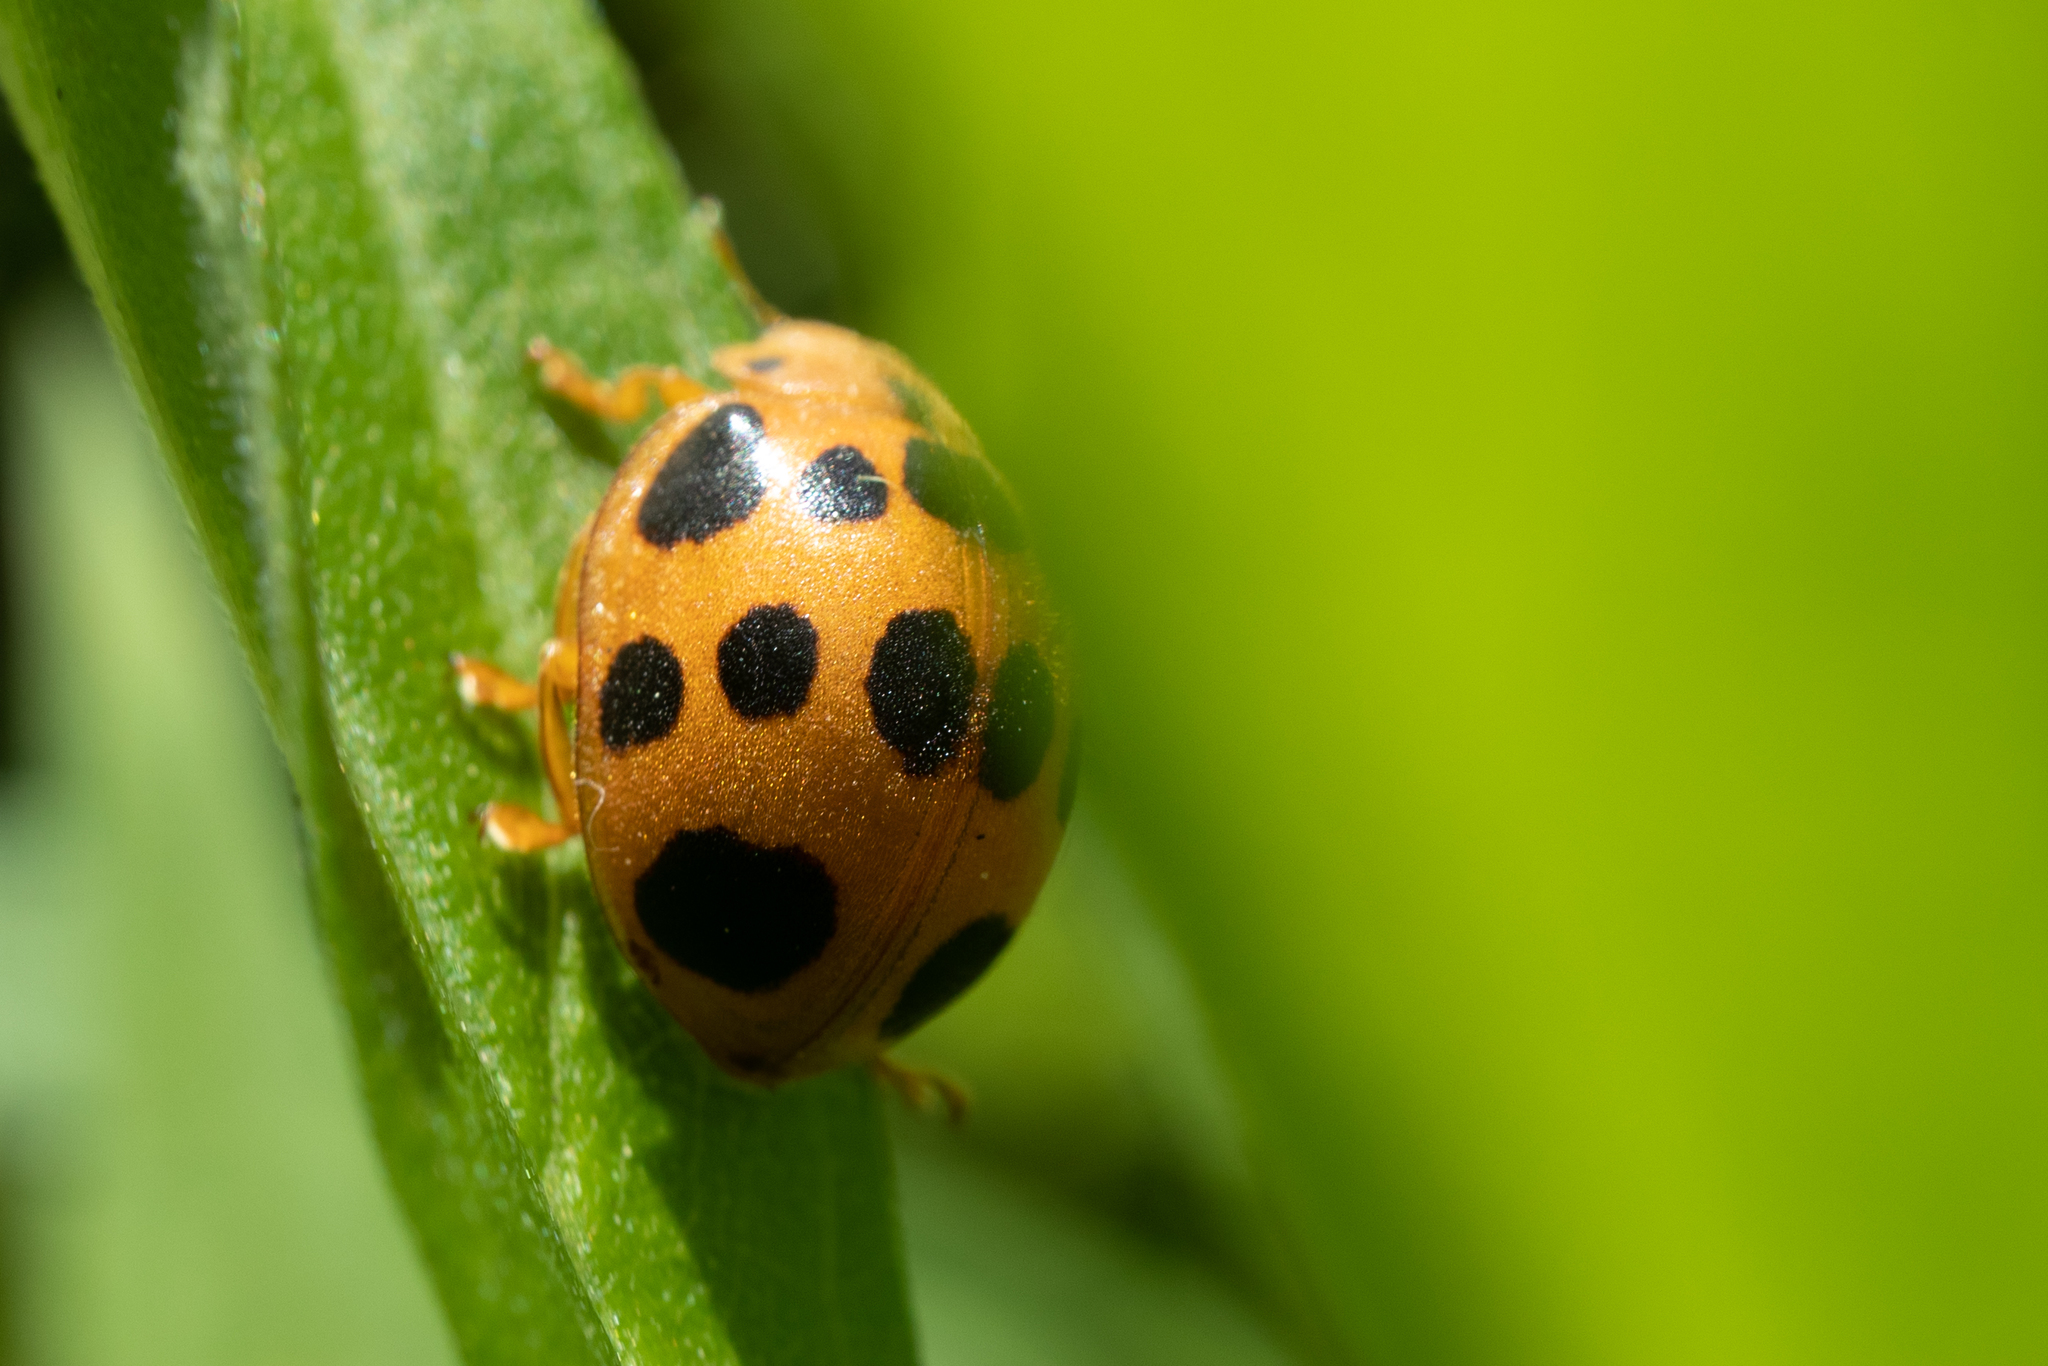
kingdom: Animalia
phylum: Arthropoda
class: Insecta
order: Coleoptera
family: Coccinellidae
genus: Epilachna
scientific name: Epilachna borealis
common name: Squash beetle
